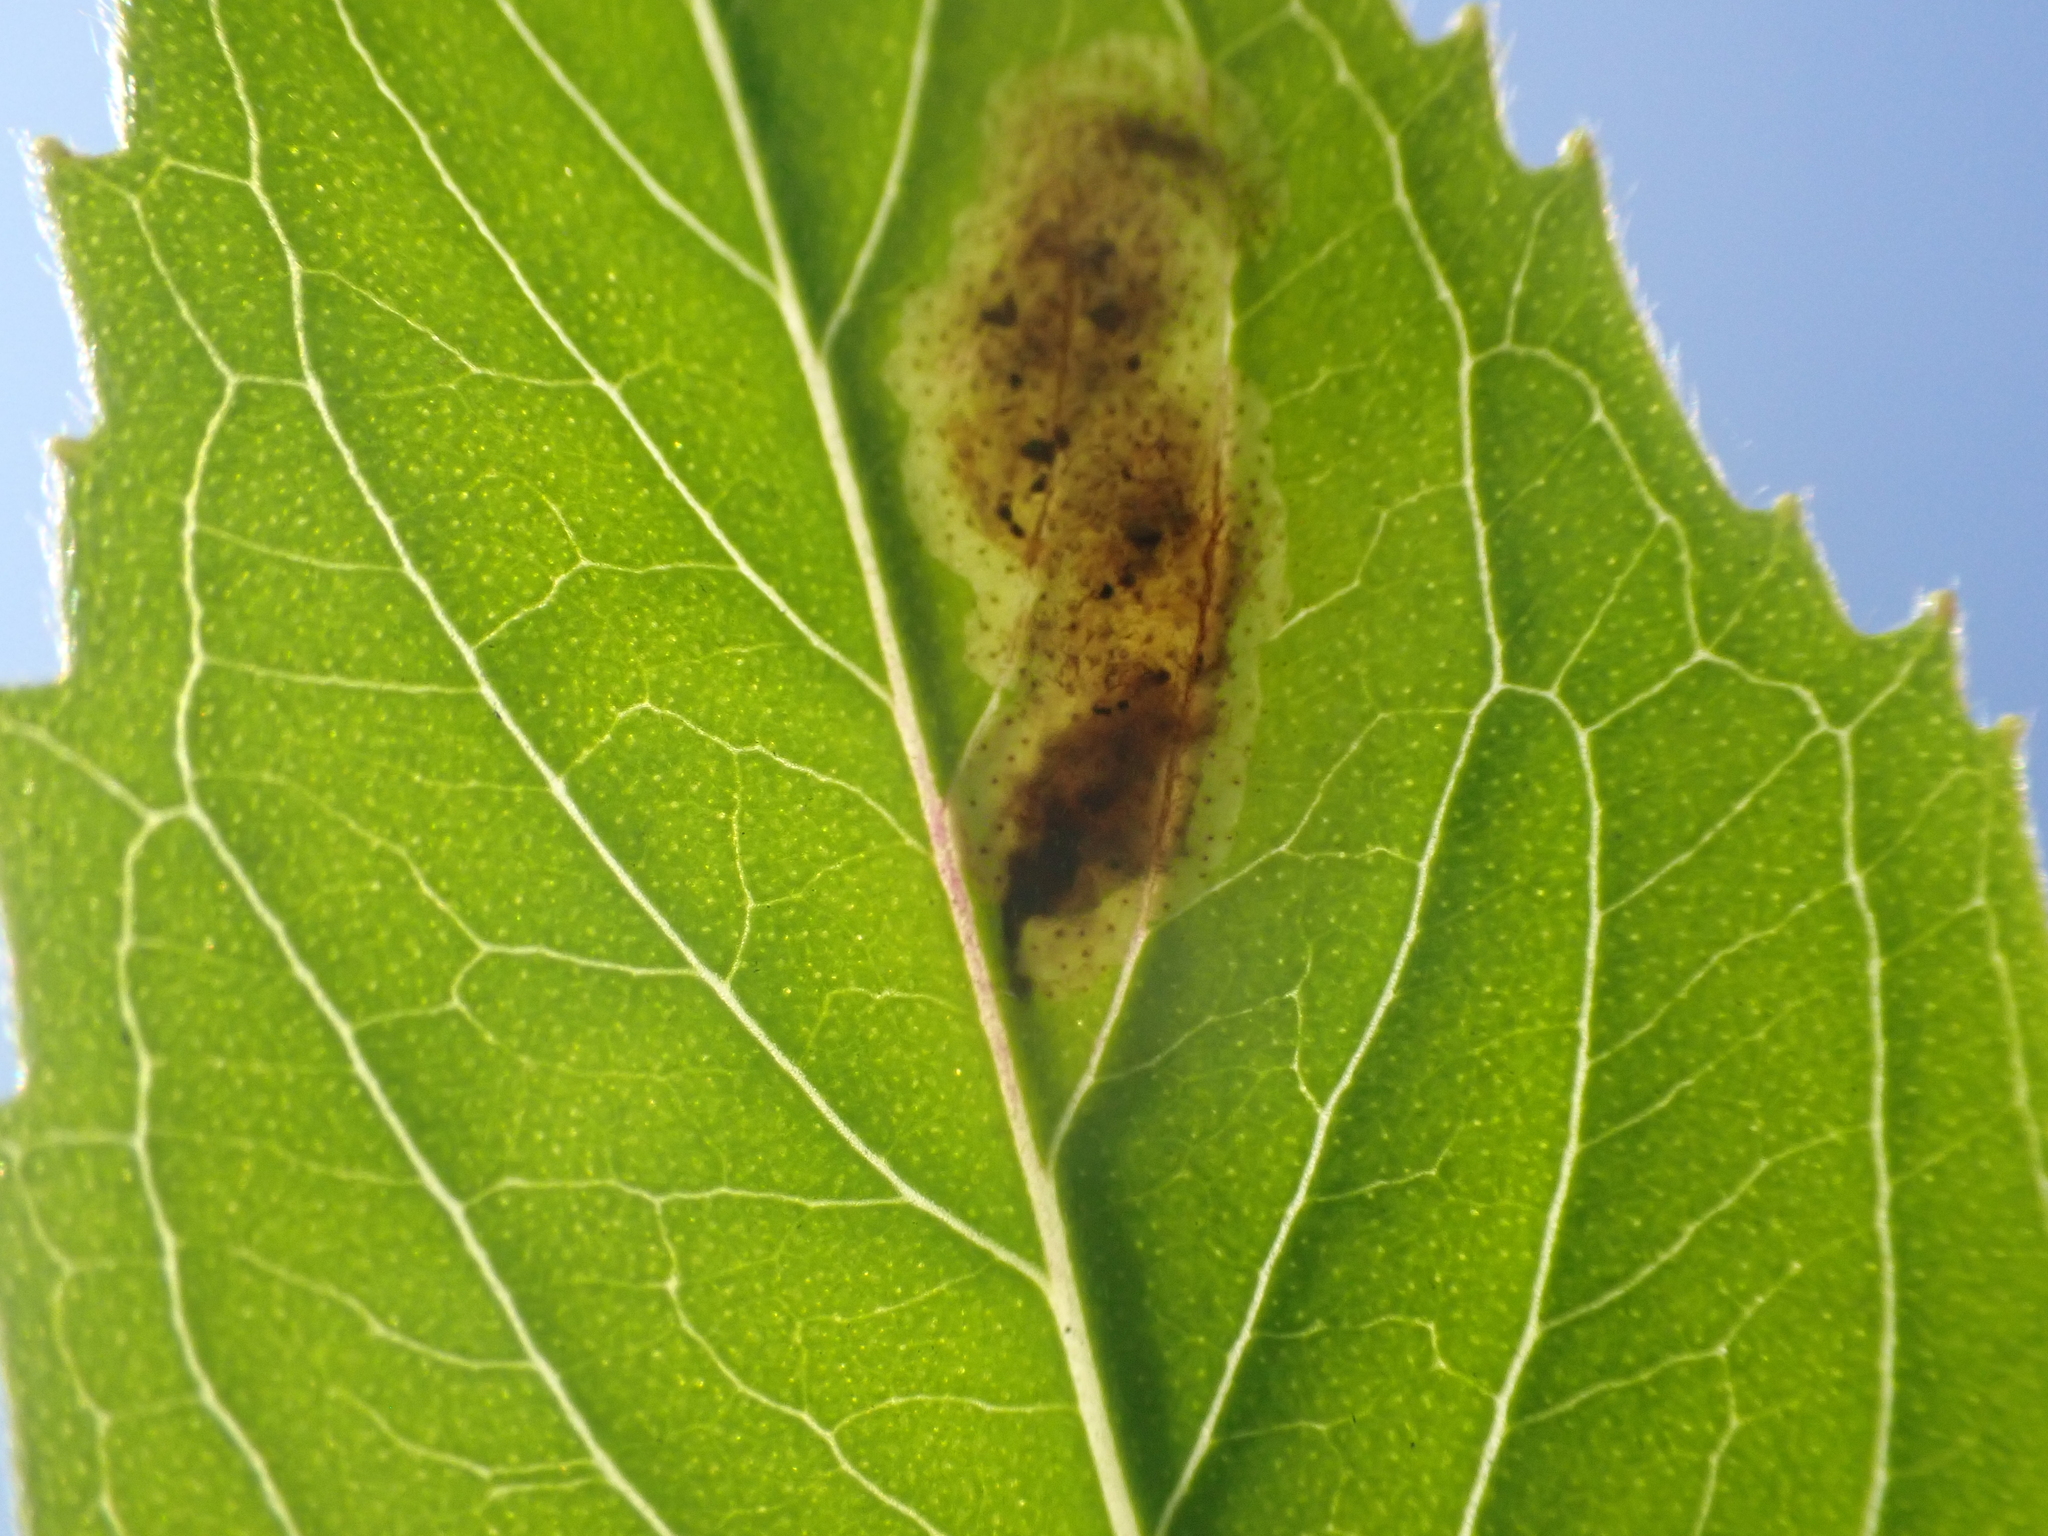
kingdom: Animalia
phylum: Arthropoda
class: Insecta
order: Diptera
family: Agromyzidae
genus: Calycomyza
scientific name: Calycomyza menthae
